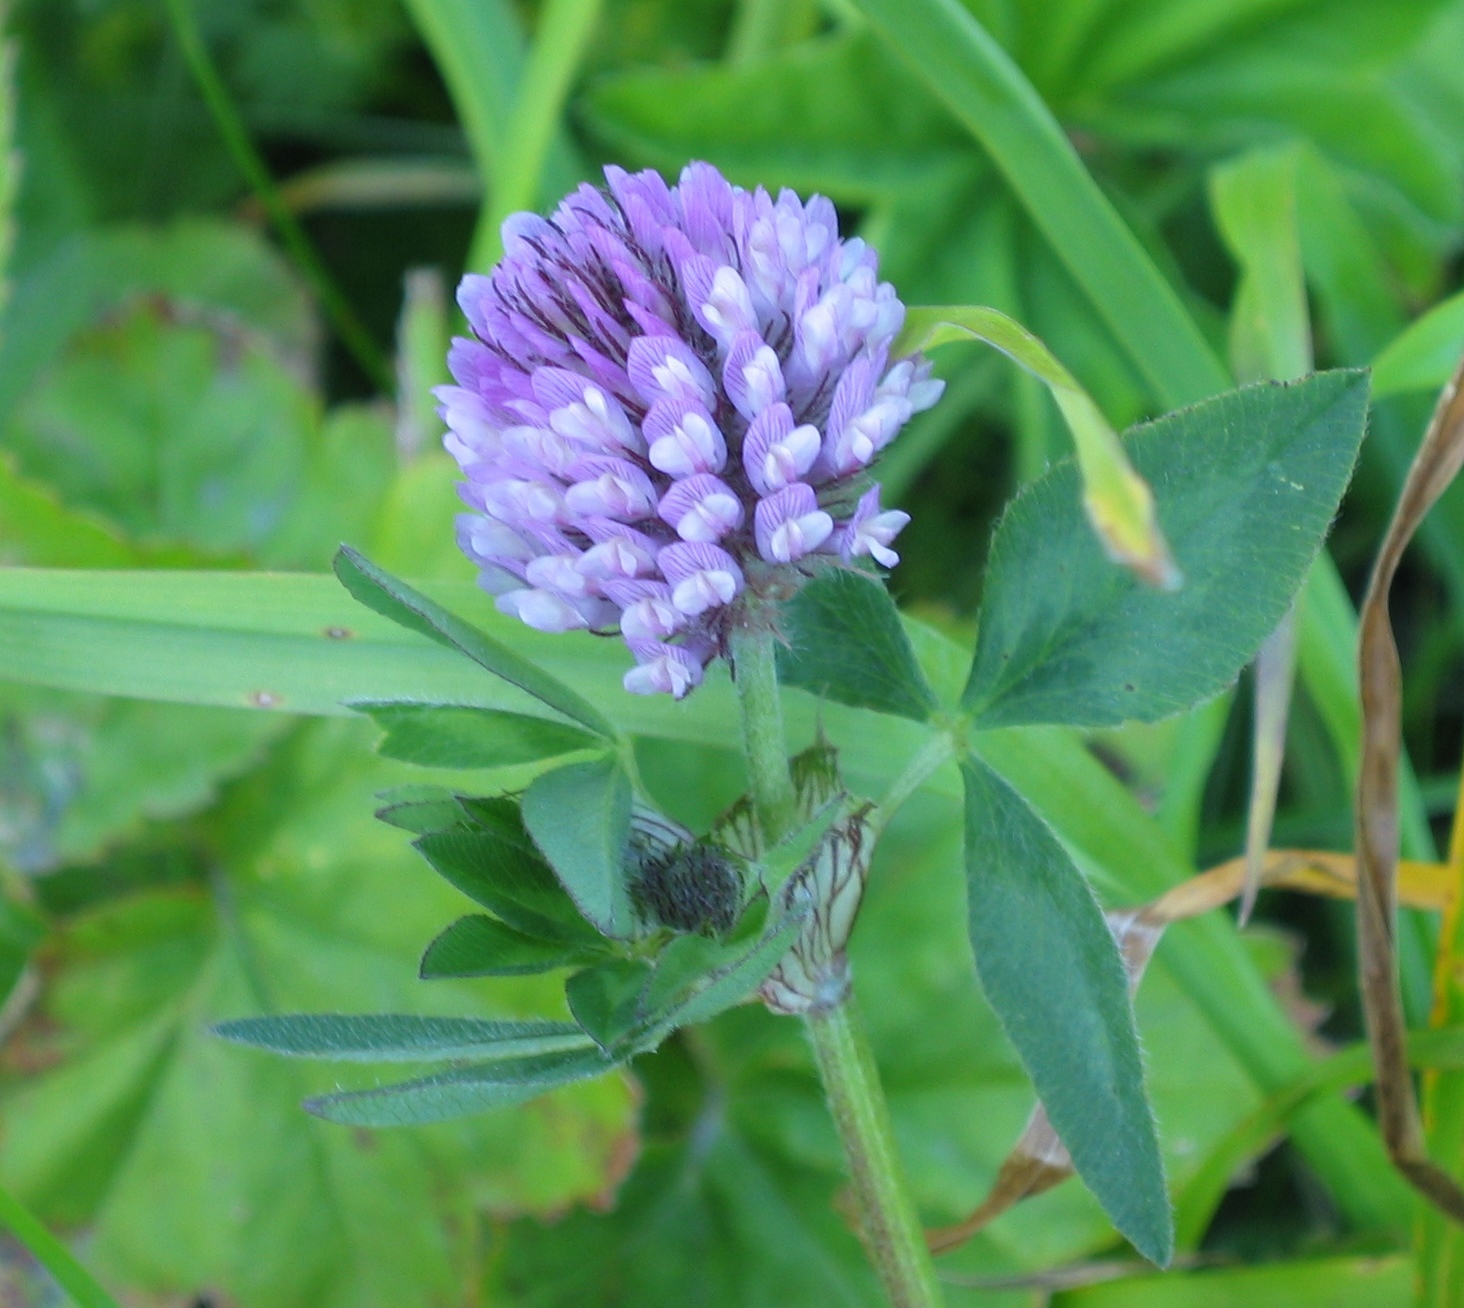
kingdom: Plantae
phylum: Tracheophyta
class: Magnoliopsida
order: Fabales
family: Fabaceae
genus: Trifolium
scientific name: Trifolium pratense
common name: Red clover
